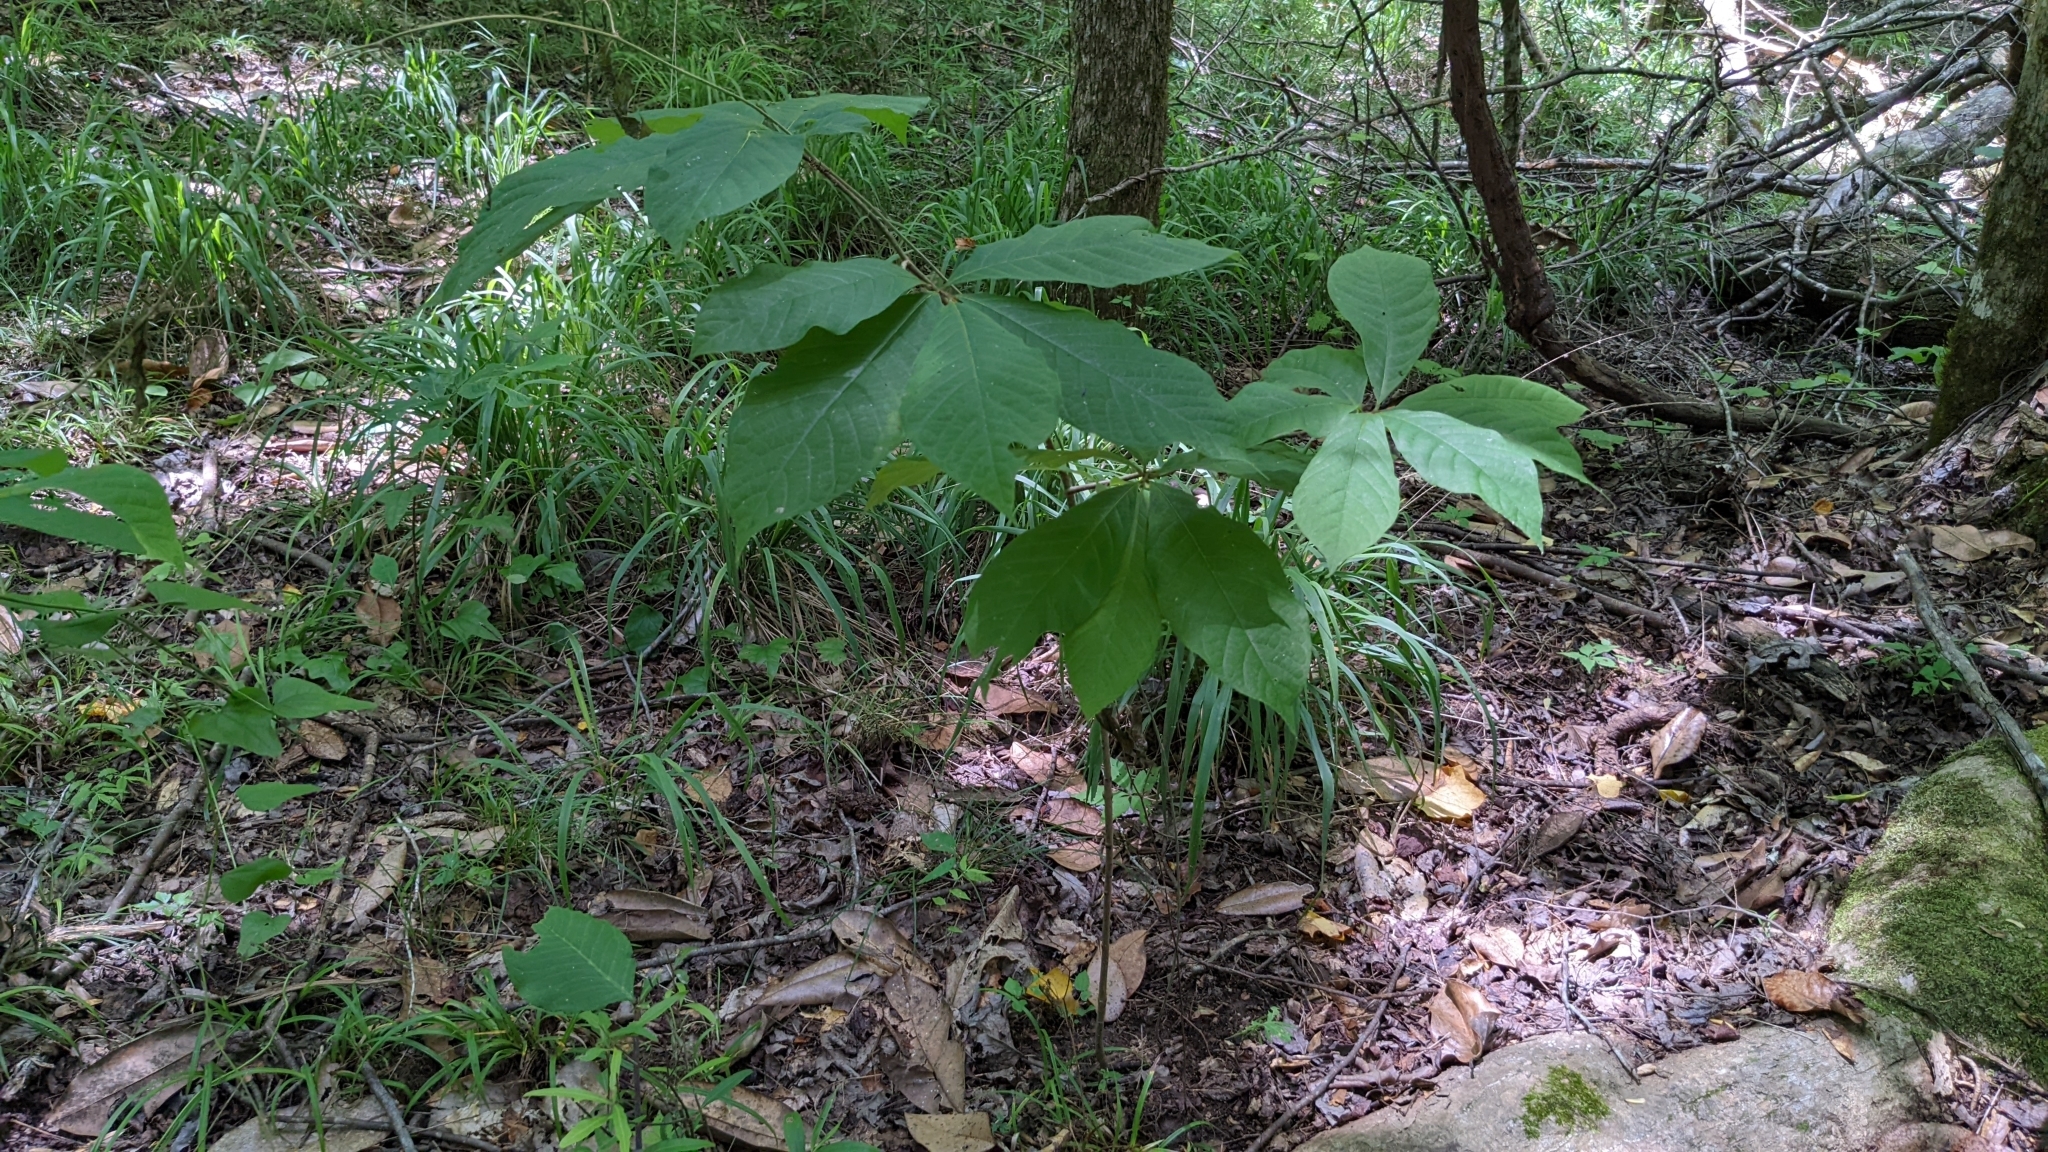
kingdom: Plantae
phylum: Tracheophyta
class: Magnoliopsida
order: Magnoliales
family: Annonaceae
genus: Asimina
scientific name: Asimina triloba
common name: Dog-banana
